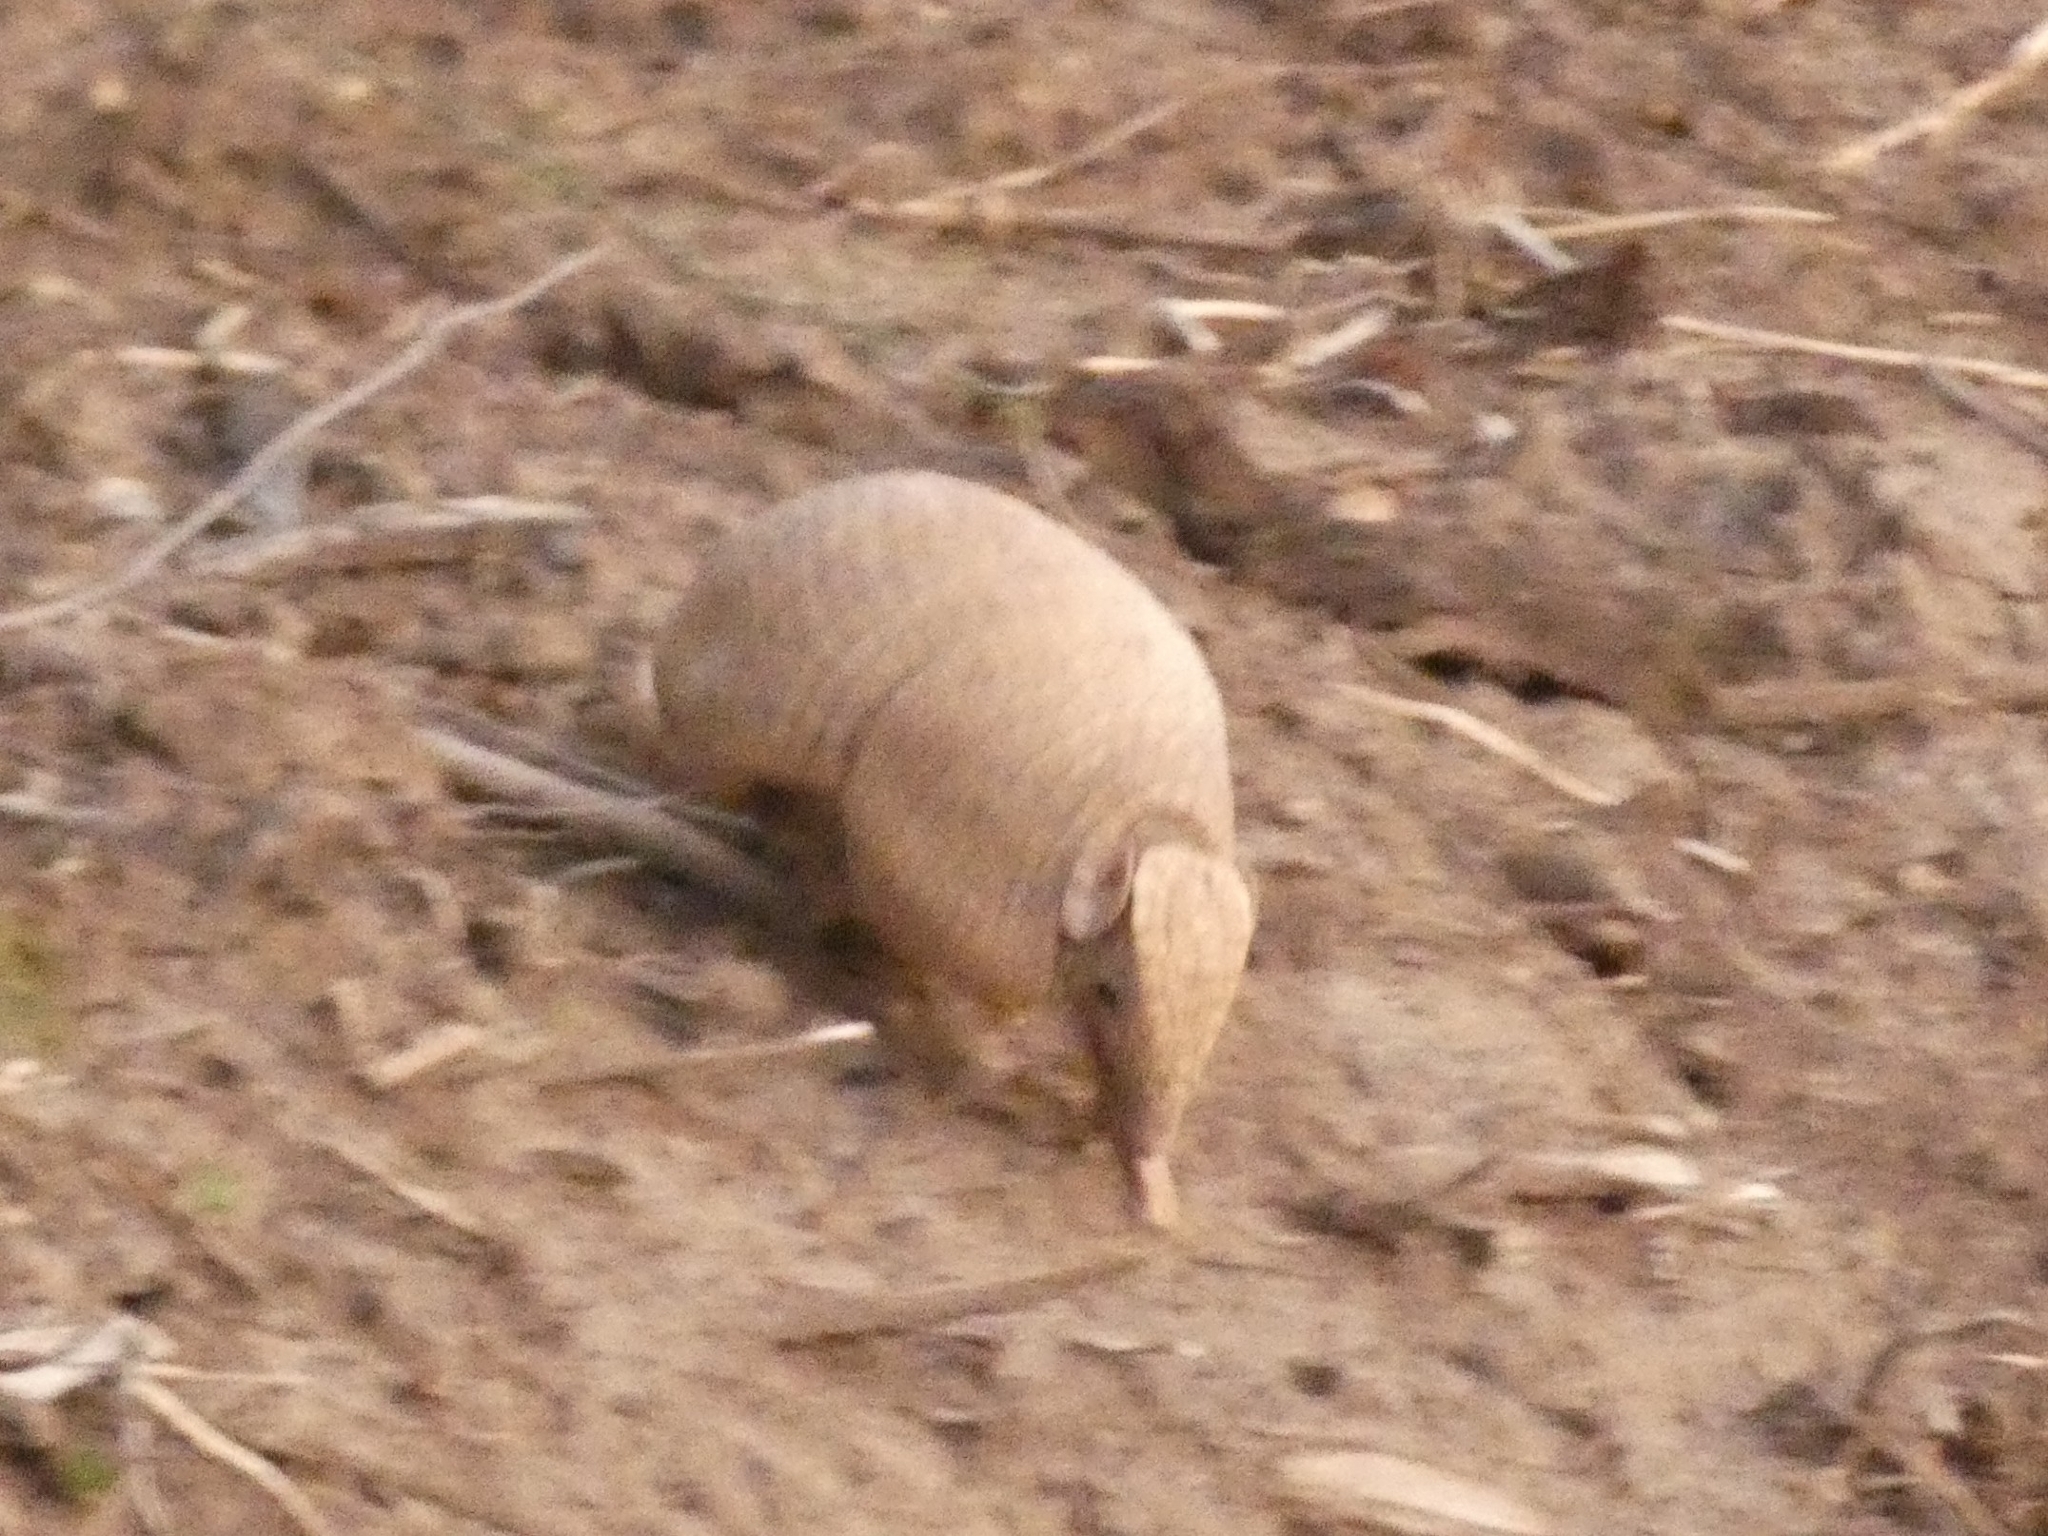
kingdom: Animalia
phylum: Chordata
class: Mammalia
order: Cingulata
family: Dasypodidae
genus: Tolypeutes
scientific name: Tolypeutes matacus
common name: Southern three-banded armadillo
